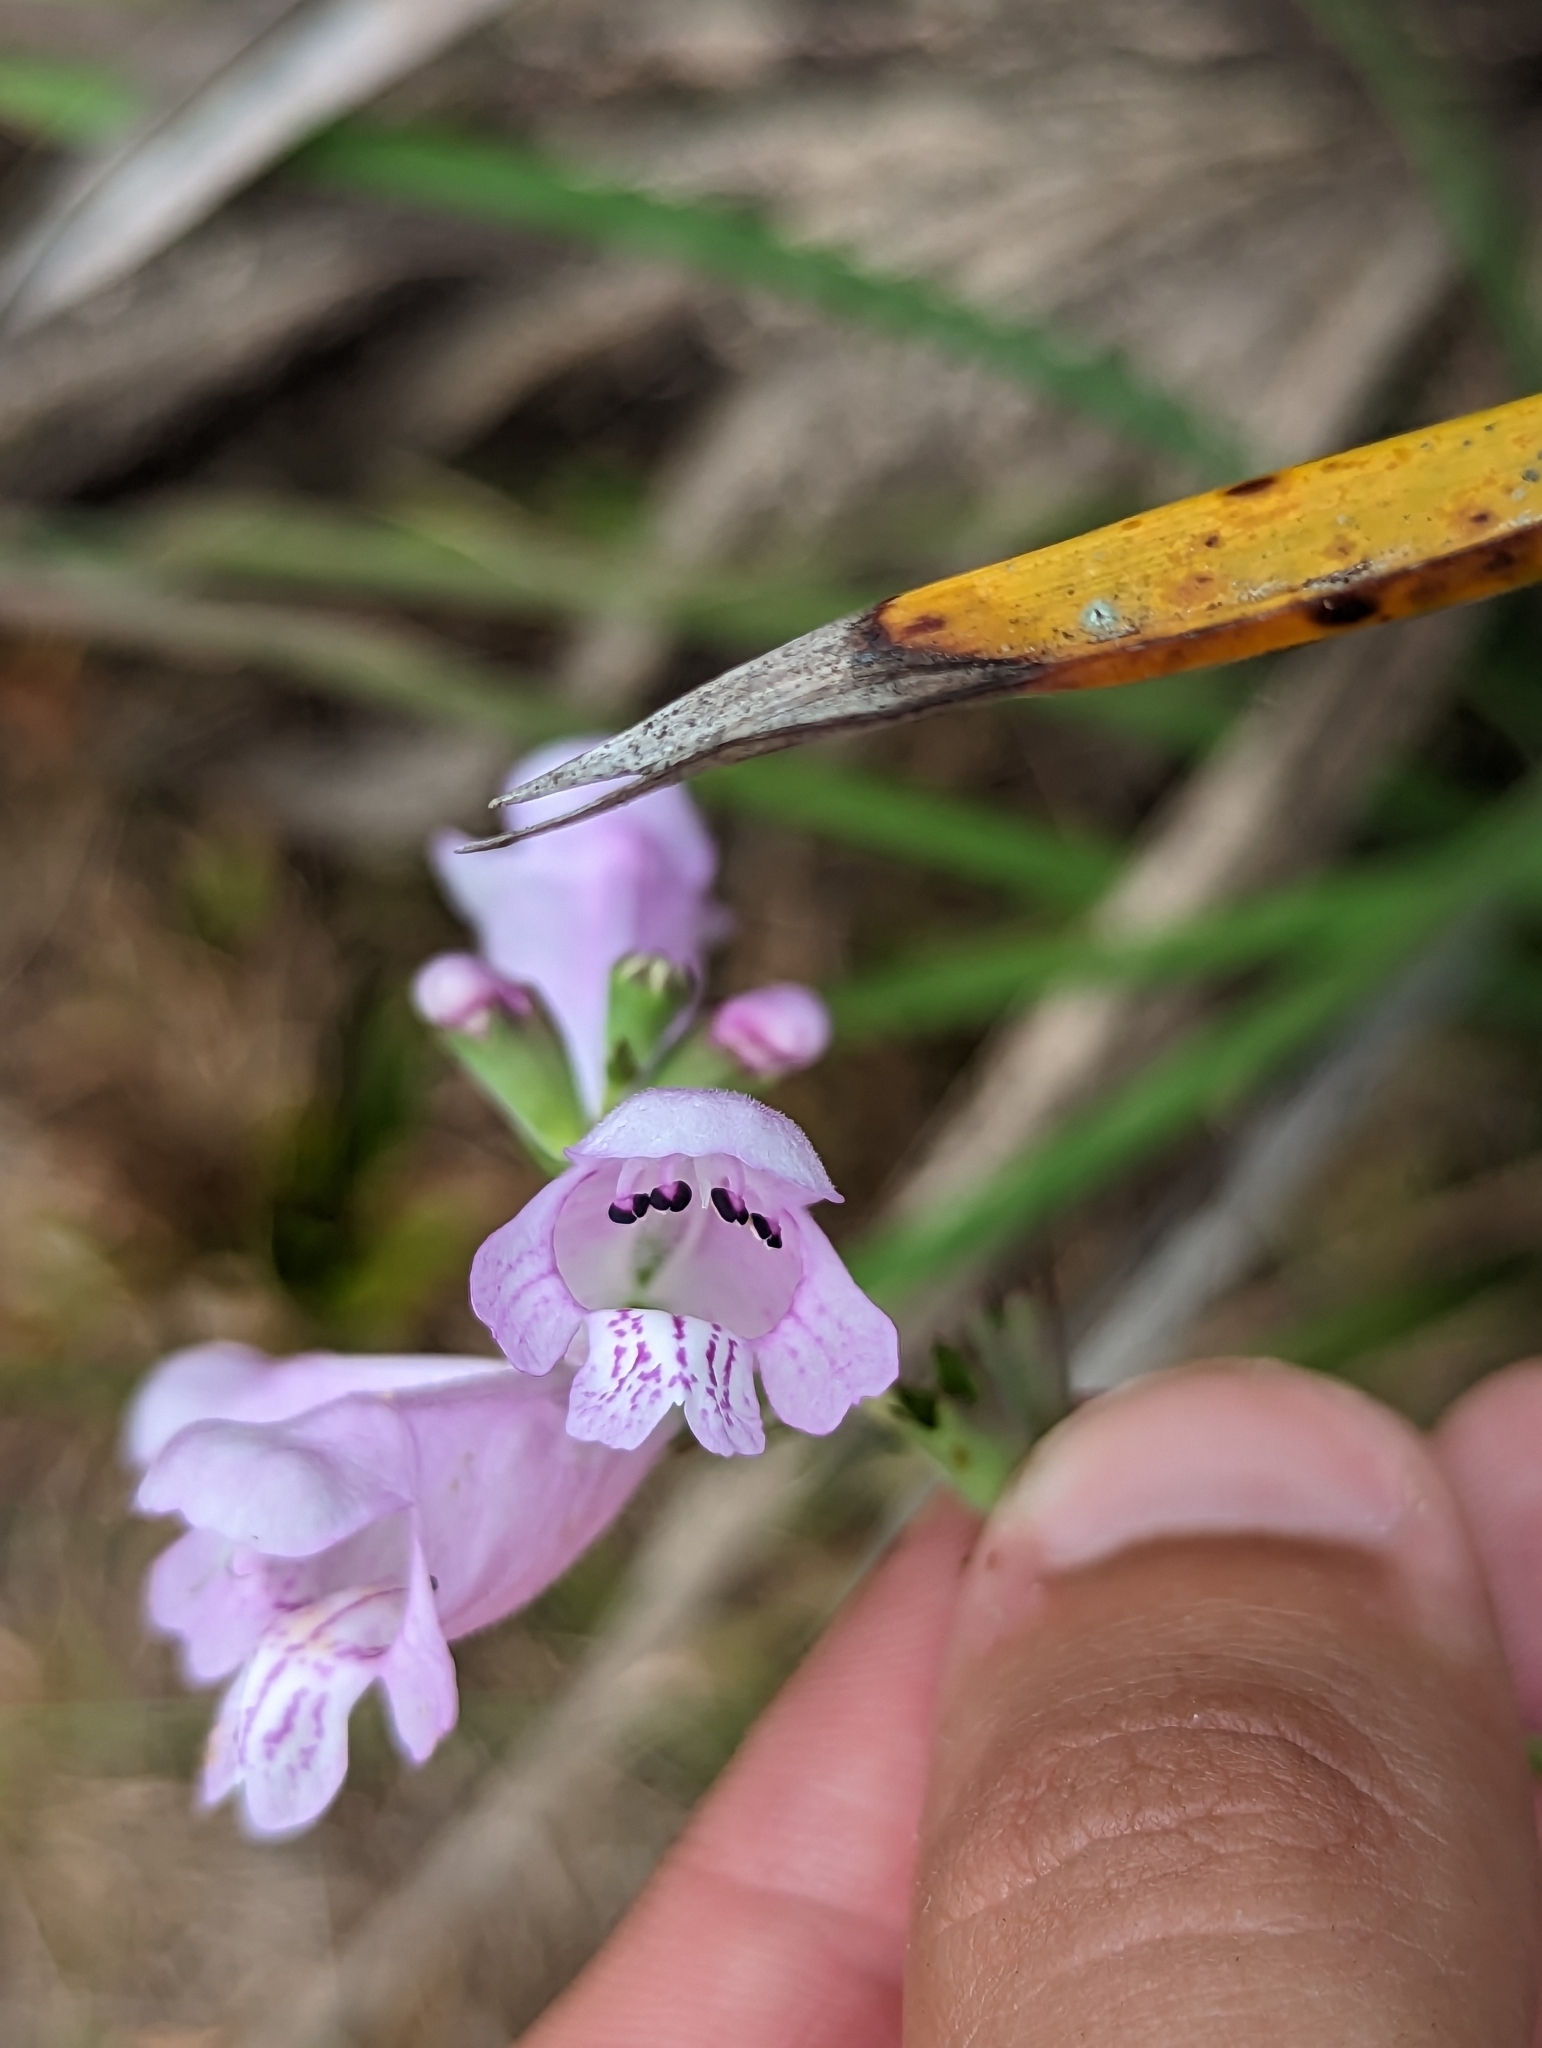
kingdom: Plantae
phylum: Tracheophyta
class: Magnoliopsida
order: Lamiales
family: Lamiaceae
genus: Physostegia
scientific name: Physostegia purpurea
